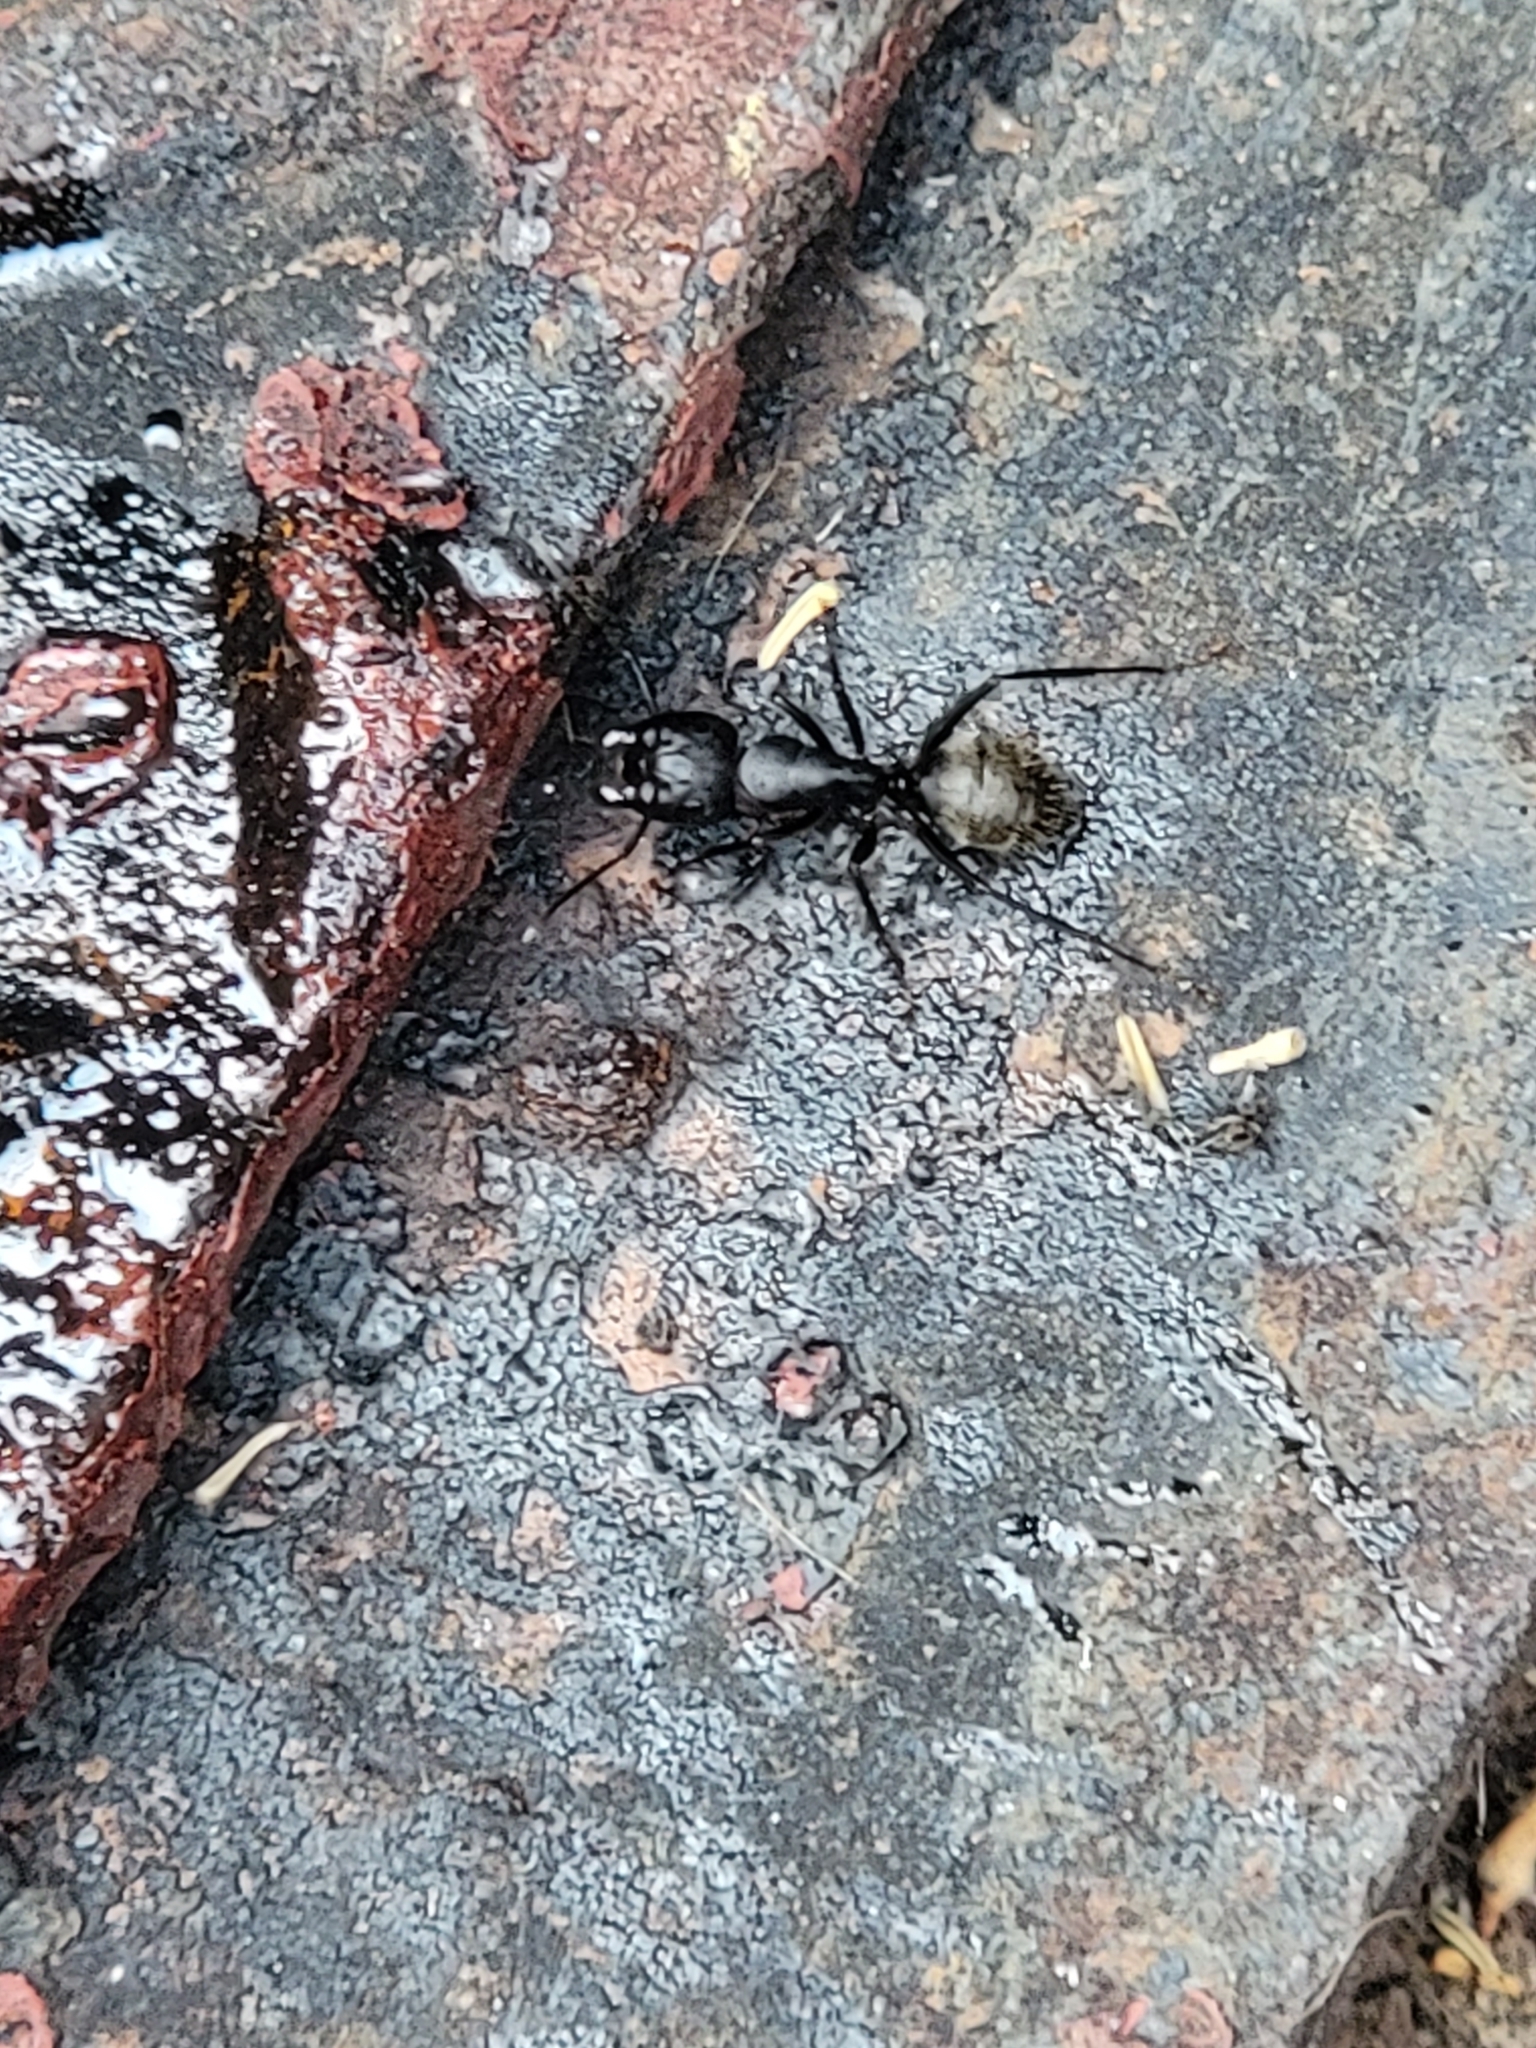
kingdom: Animalia
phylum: Arthropoda
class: Insecta
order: Hymenoptera
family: Formicidae
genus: Camponotus
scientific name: Camponotus pennsylvanicus
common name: Black carpenter ant
